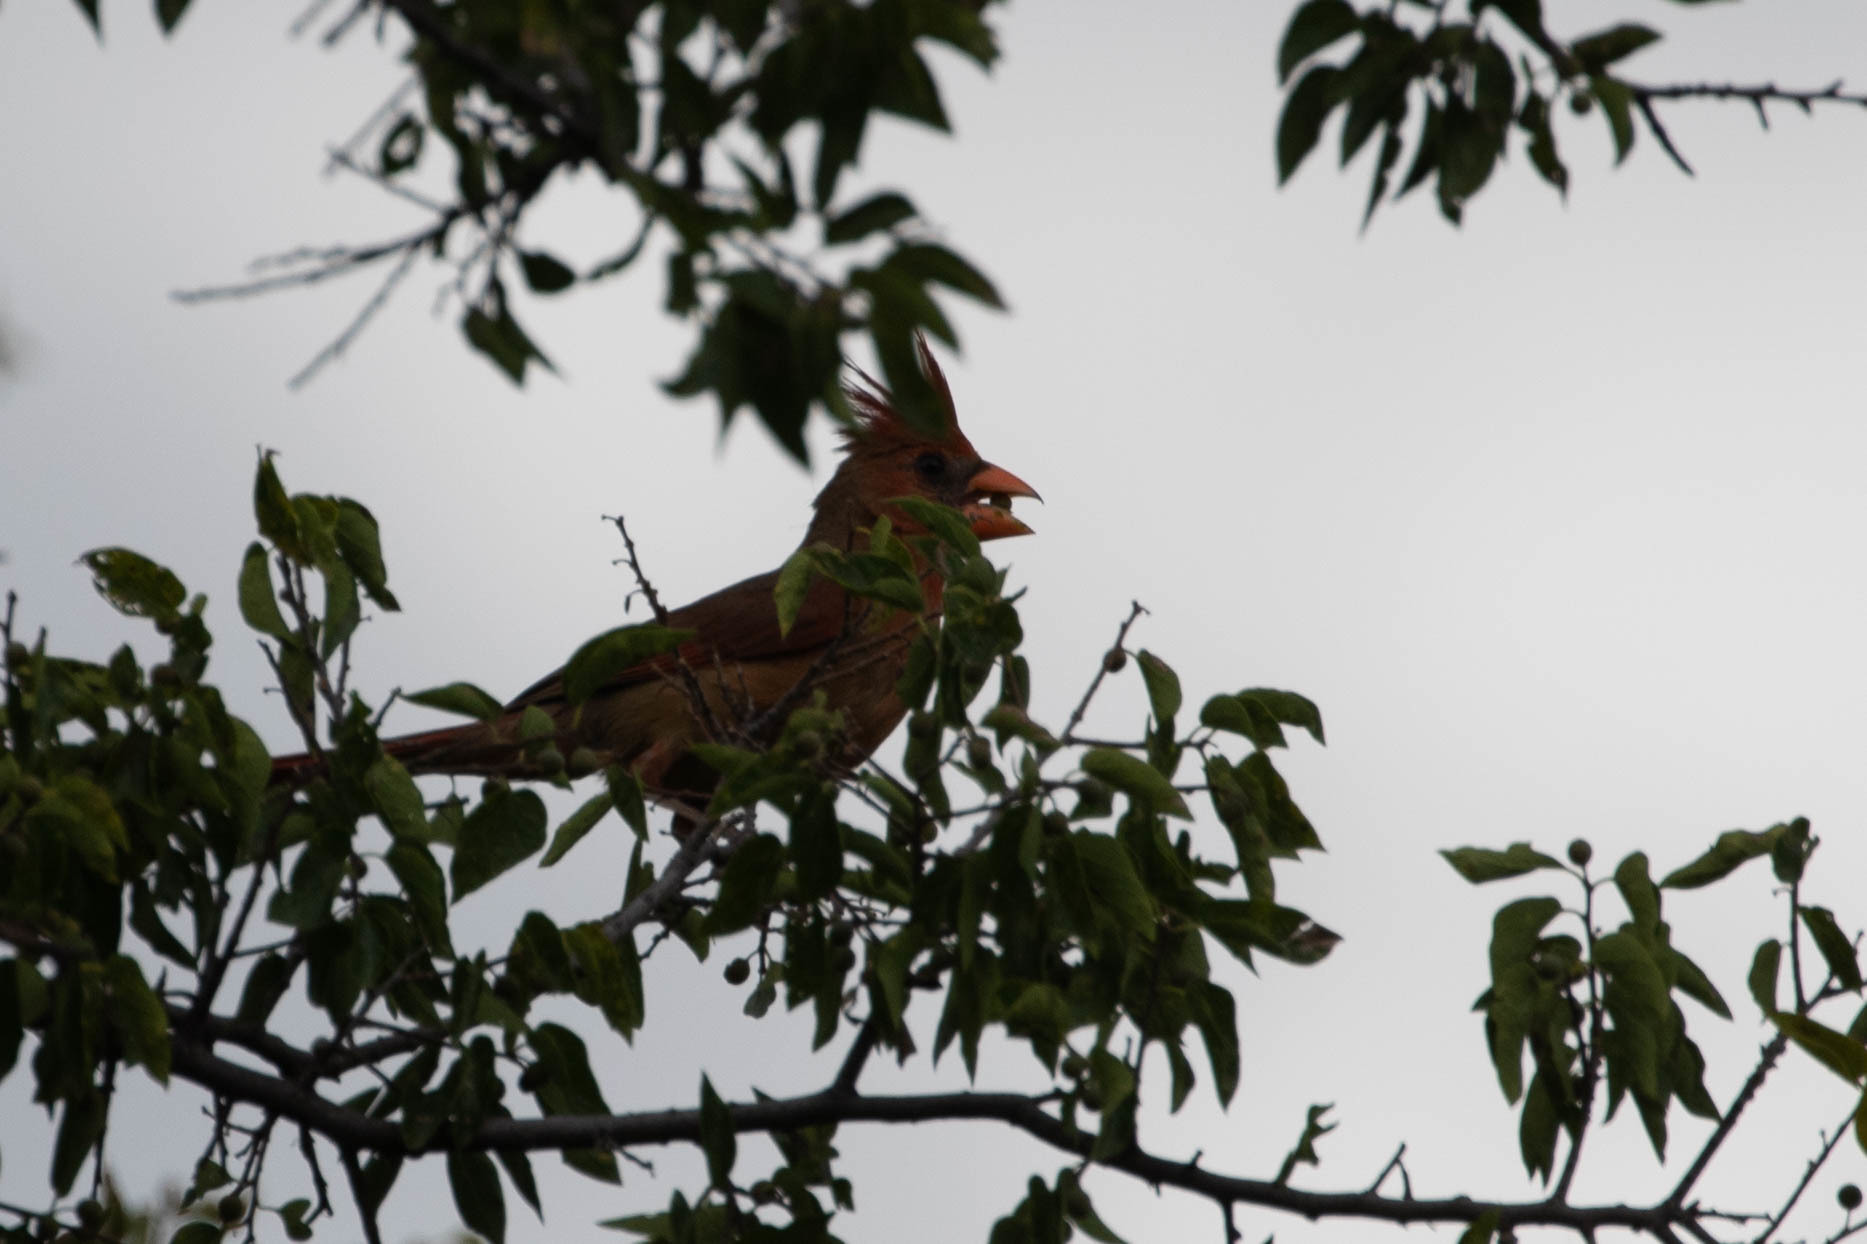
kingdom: Animalia
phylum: Chordata
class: Aves
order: Passeriformes
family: Cardinalidae
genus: Cardinalis
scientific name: Cardinalis cardinalis
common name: Northern cardinal
